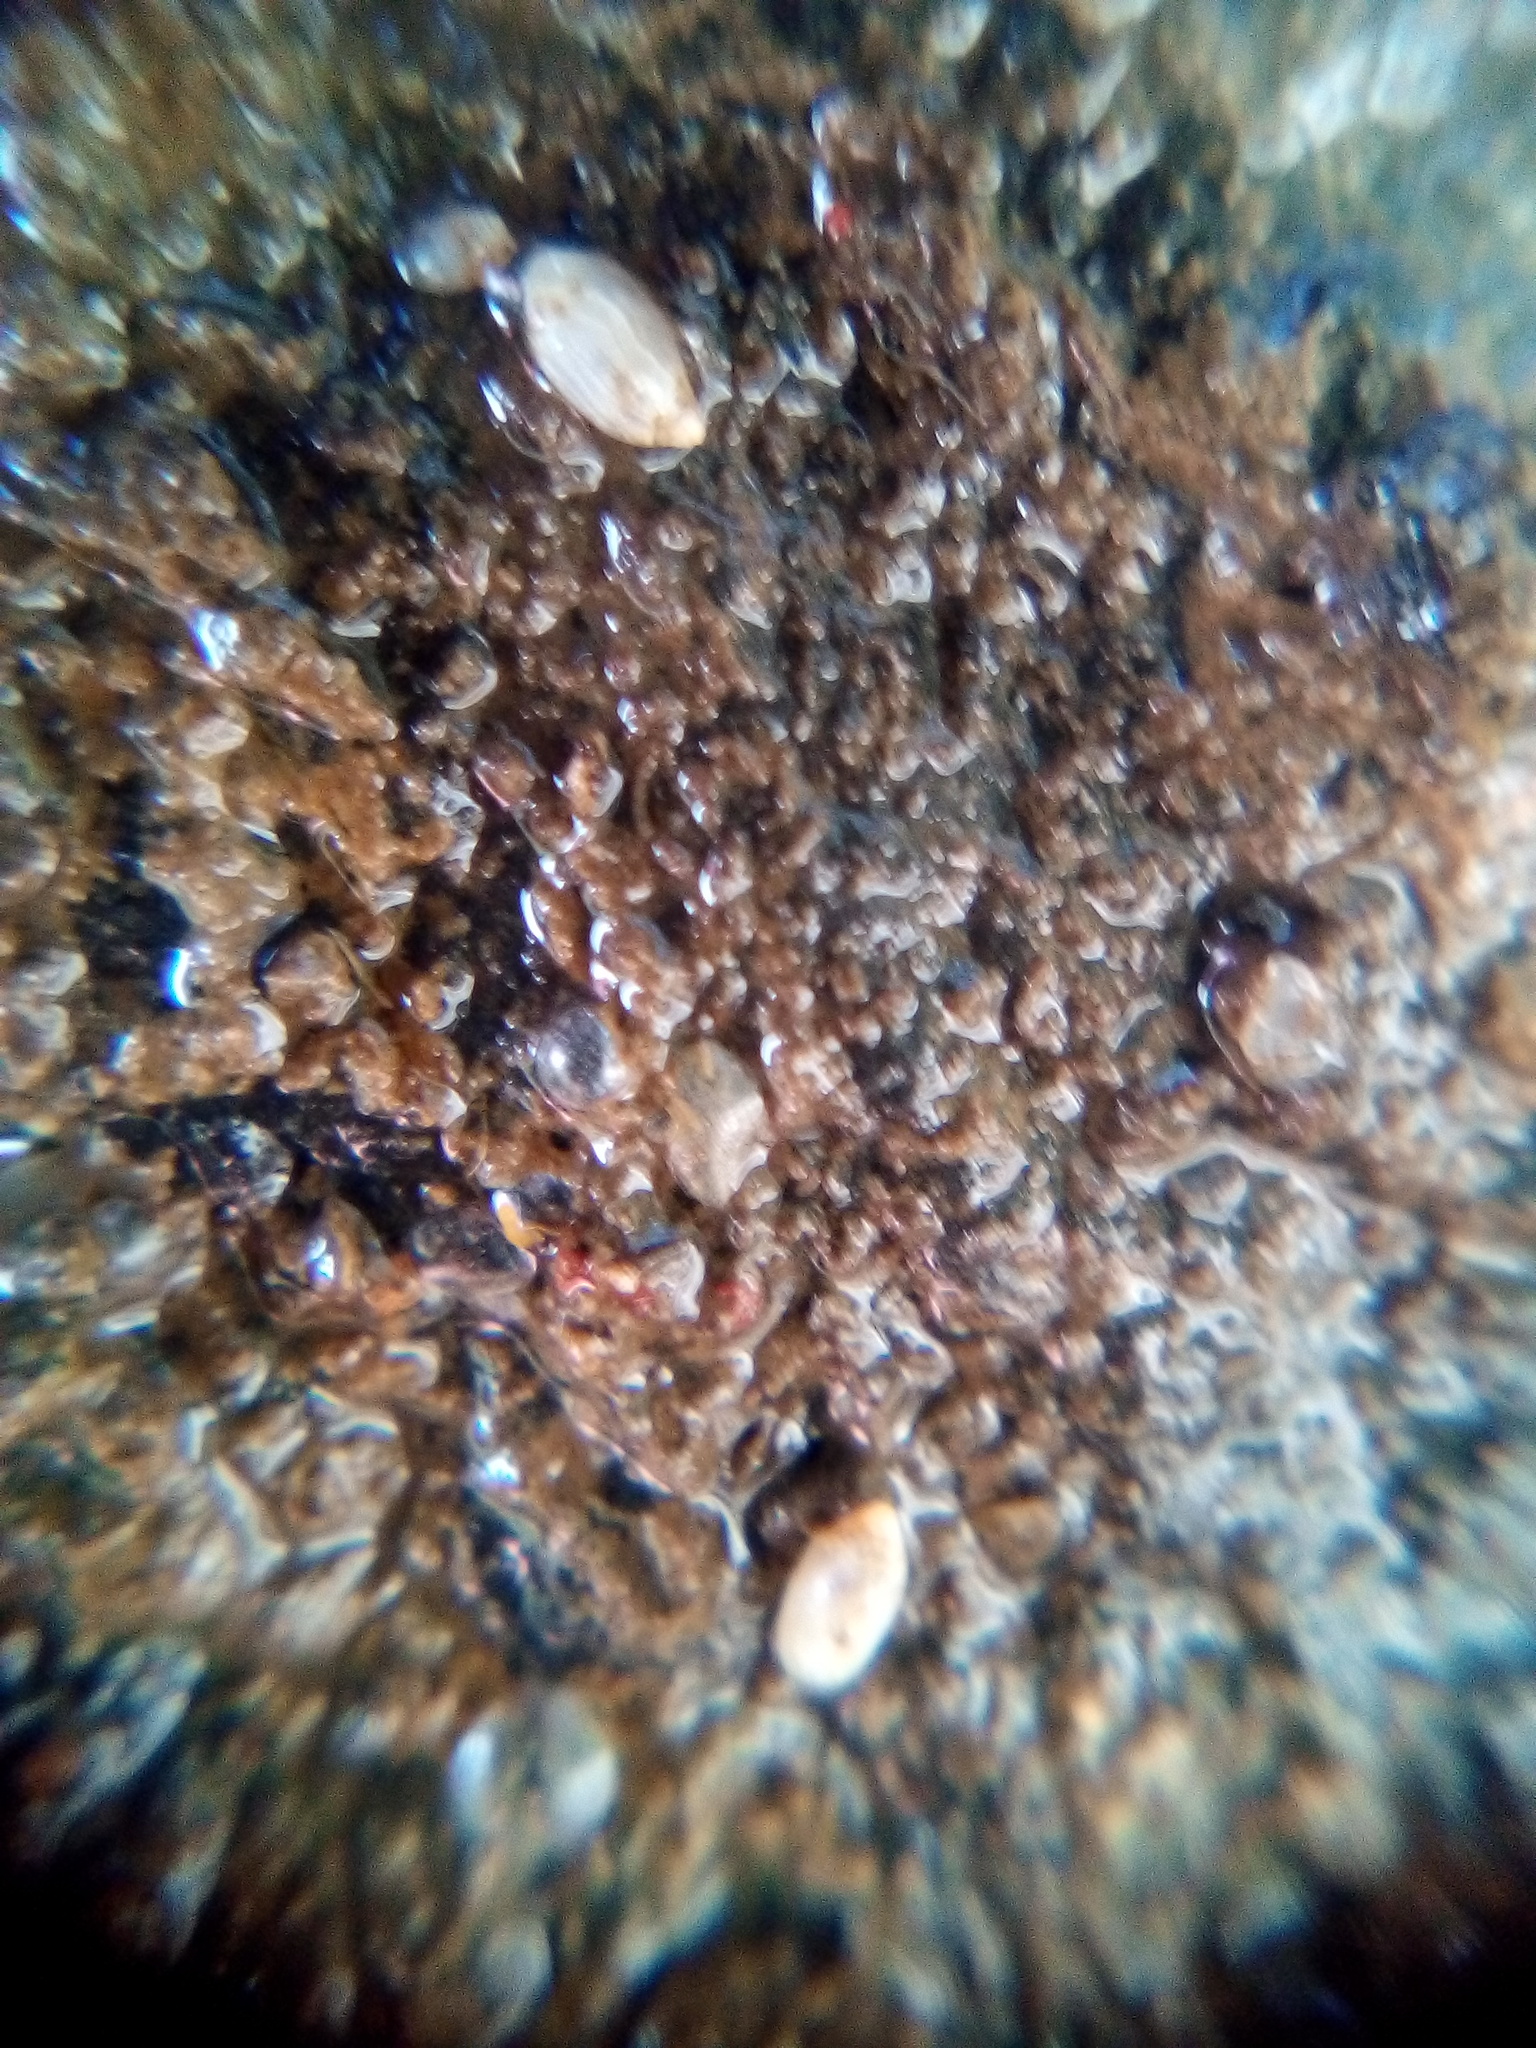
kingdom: Animalia
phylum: Mollusca
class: Gastropoda
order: Ellobiida
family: Ellobiidae
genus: Microtralia
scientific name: Microtralia insularis
